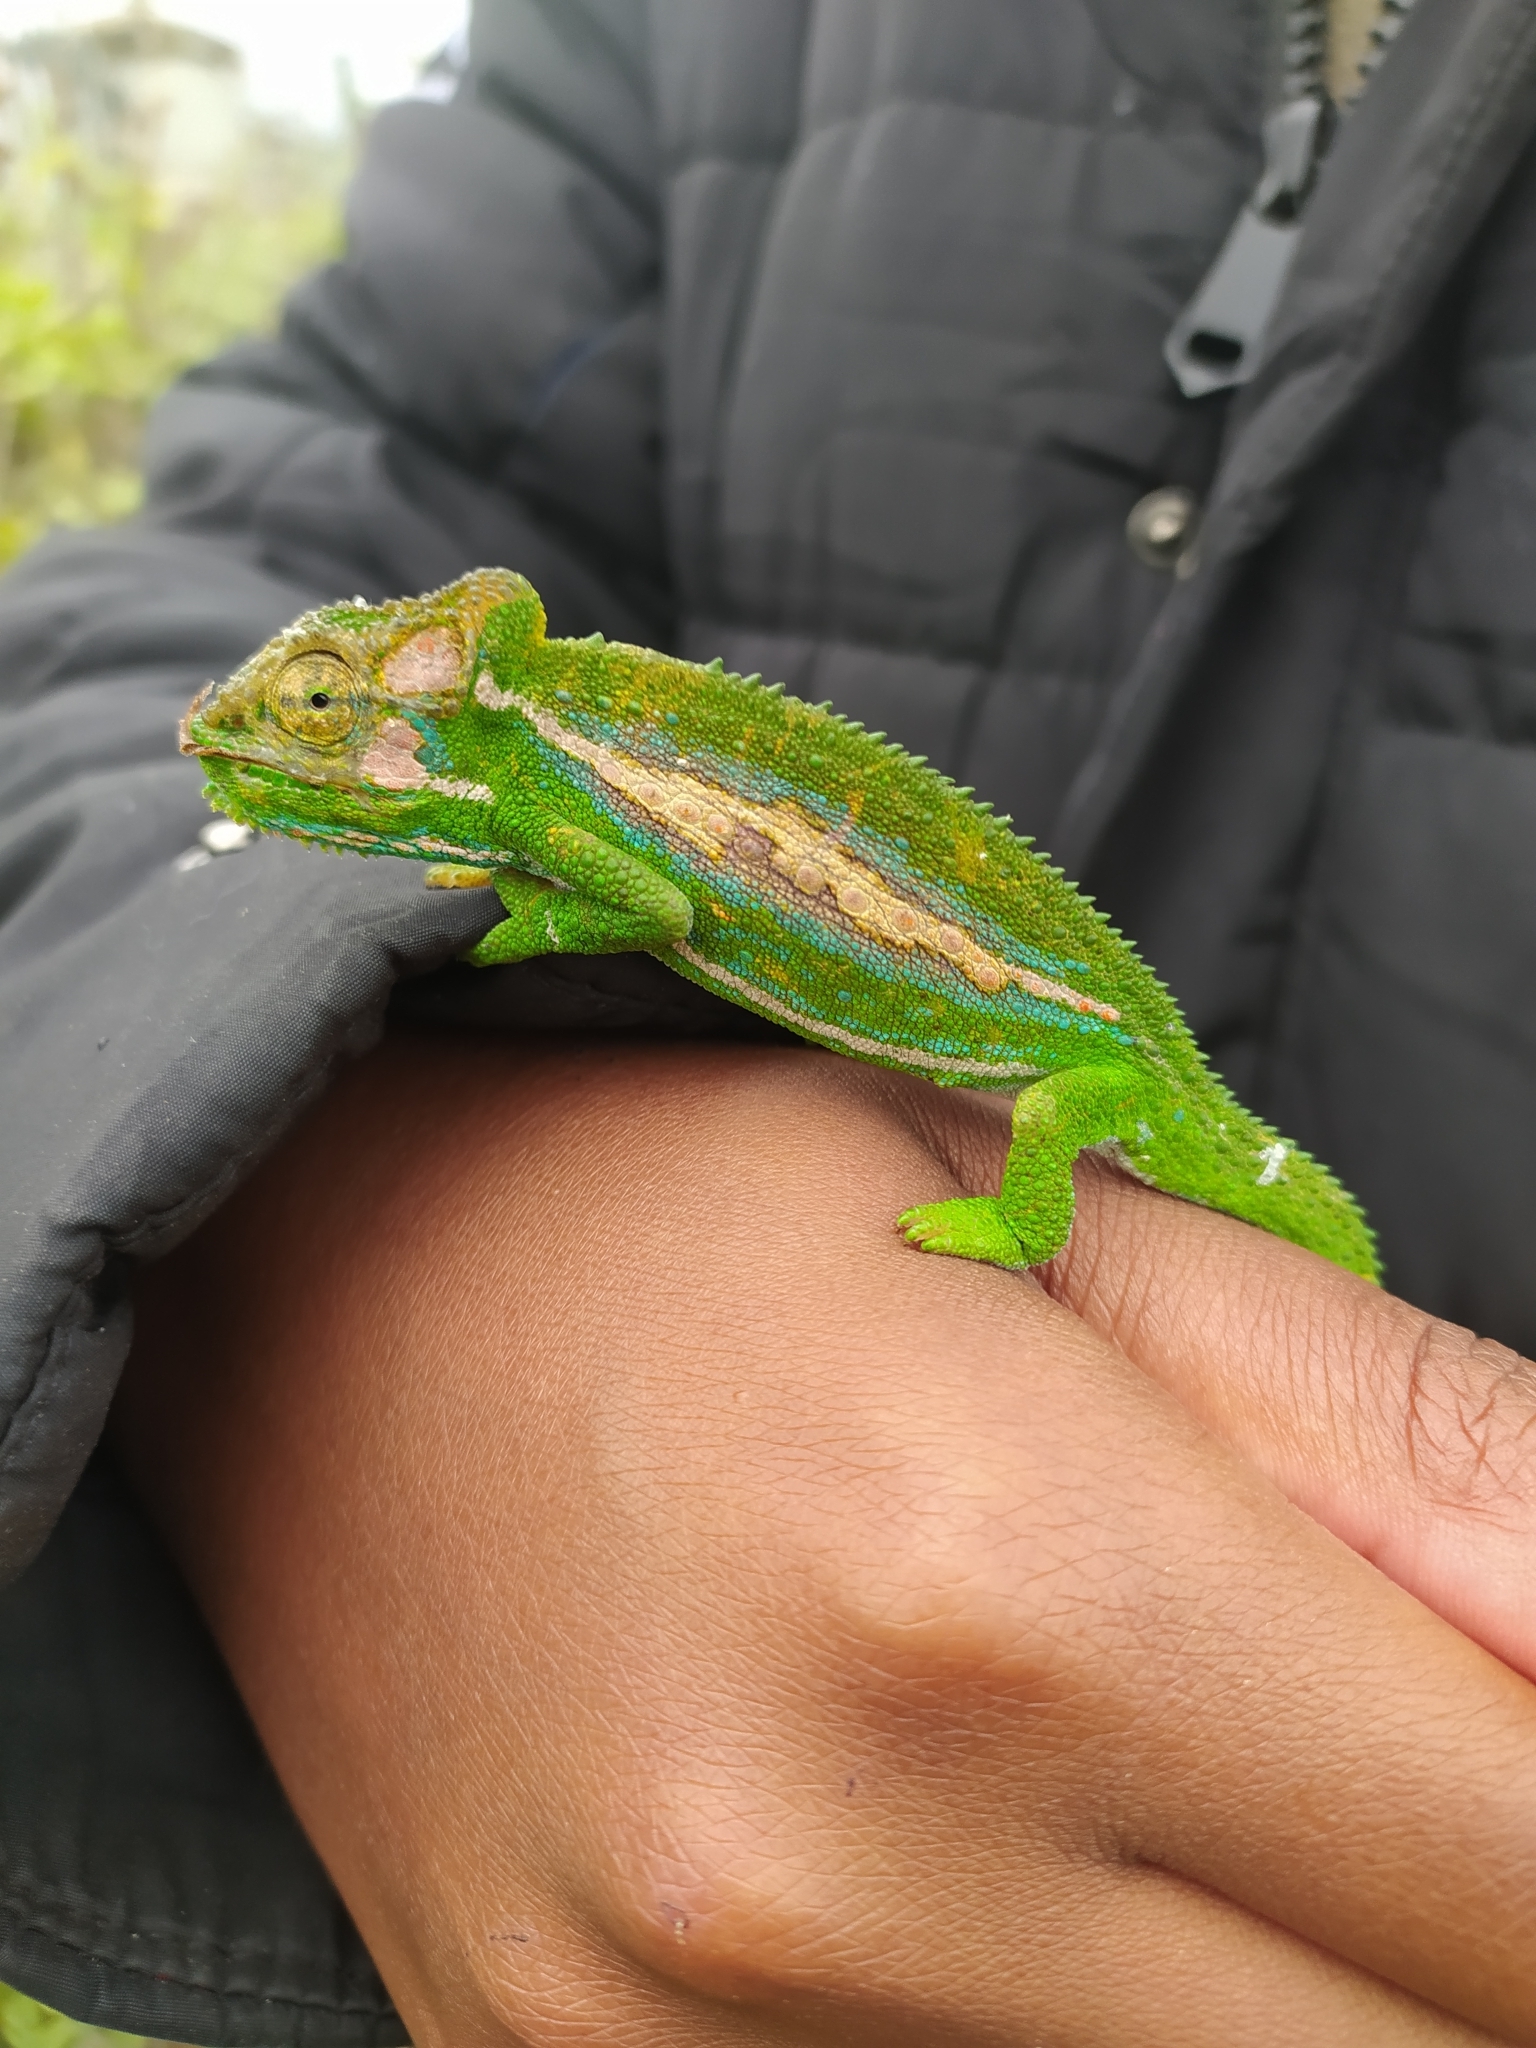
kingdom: Animalia
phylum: Chordata
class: Squamata
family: Chamaeleonidae
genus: Bradypodion
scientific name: Bradypodion pumilum
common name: Cape dwarf chameleon
